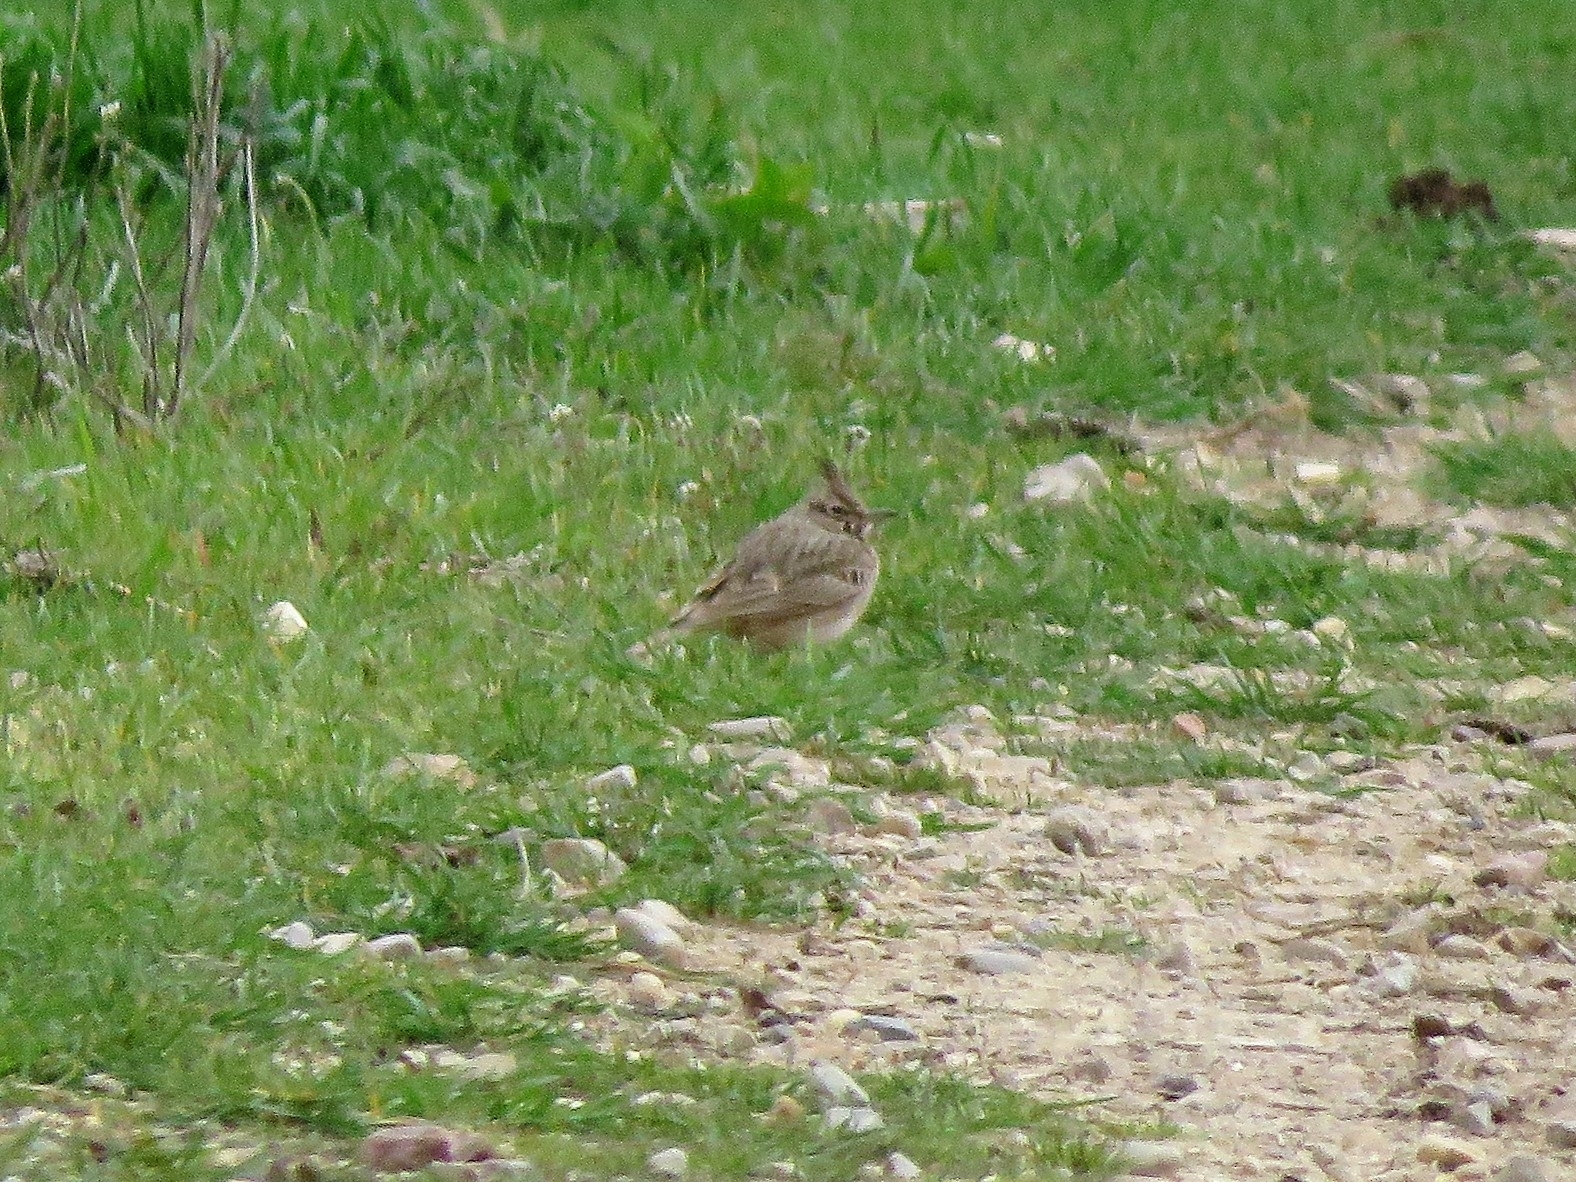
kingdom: Animalia
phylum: Chordata
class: Aves
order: Passeriformes
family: Alaudidae
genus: Galerida
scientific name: Galerida cristata
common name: Crested lark
